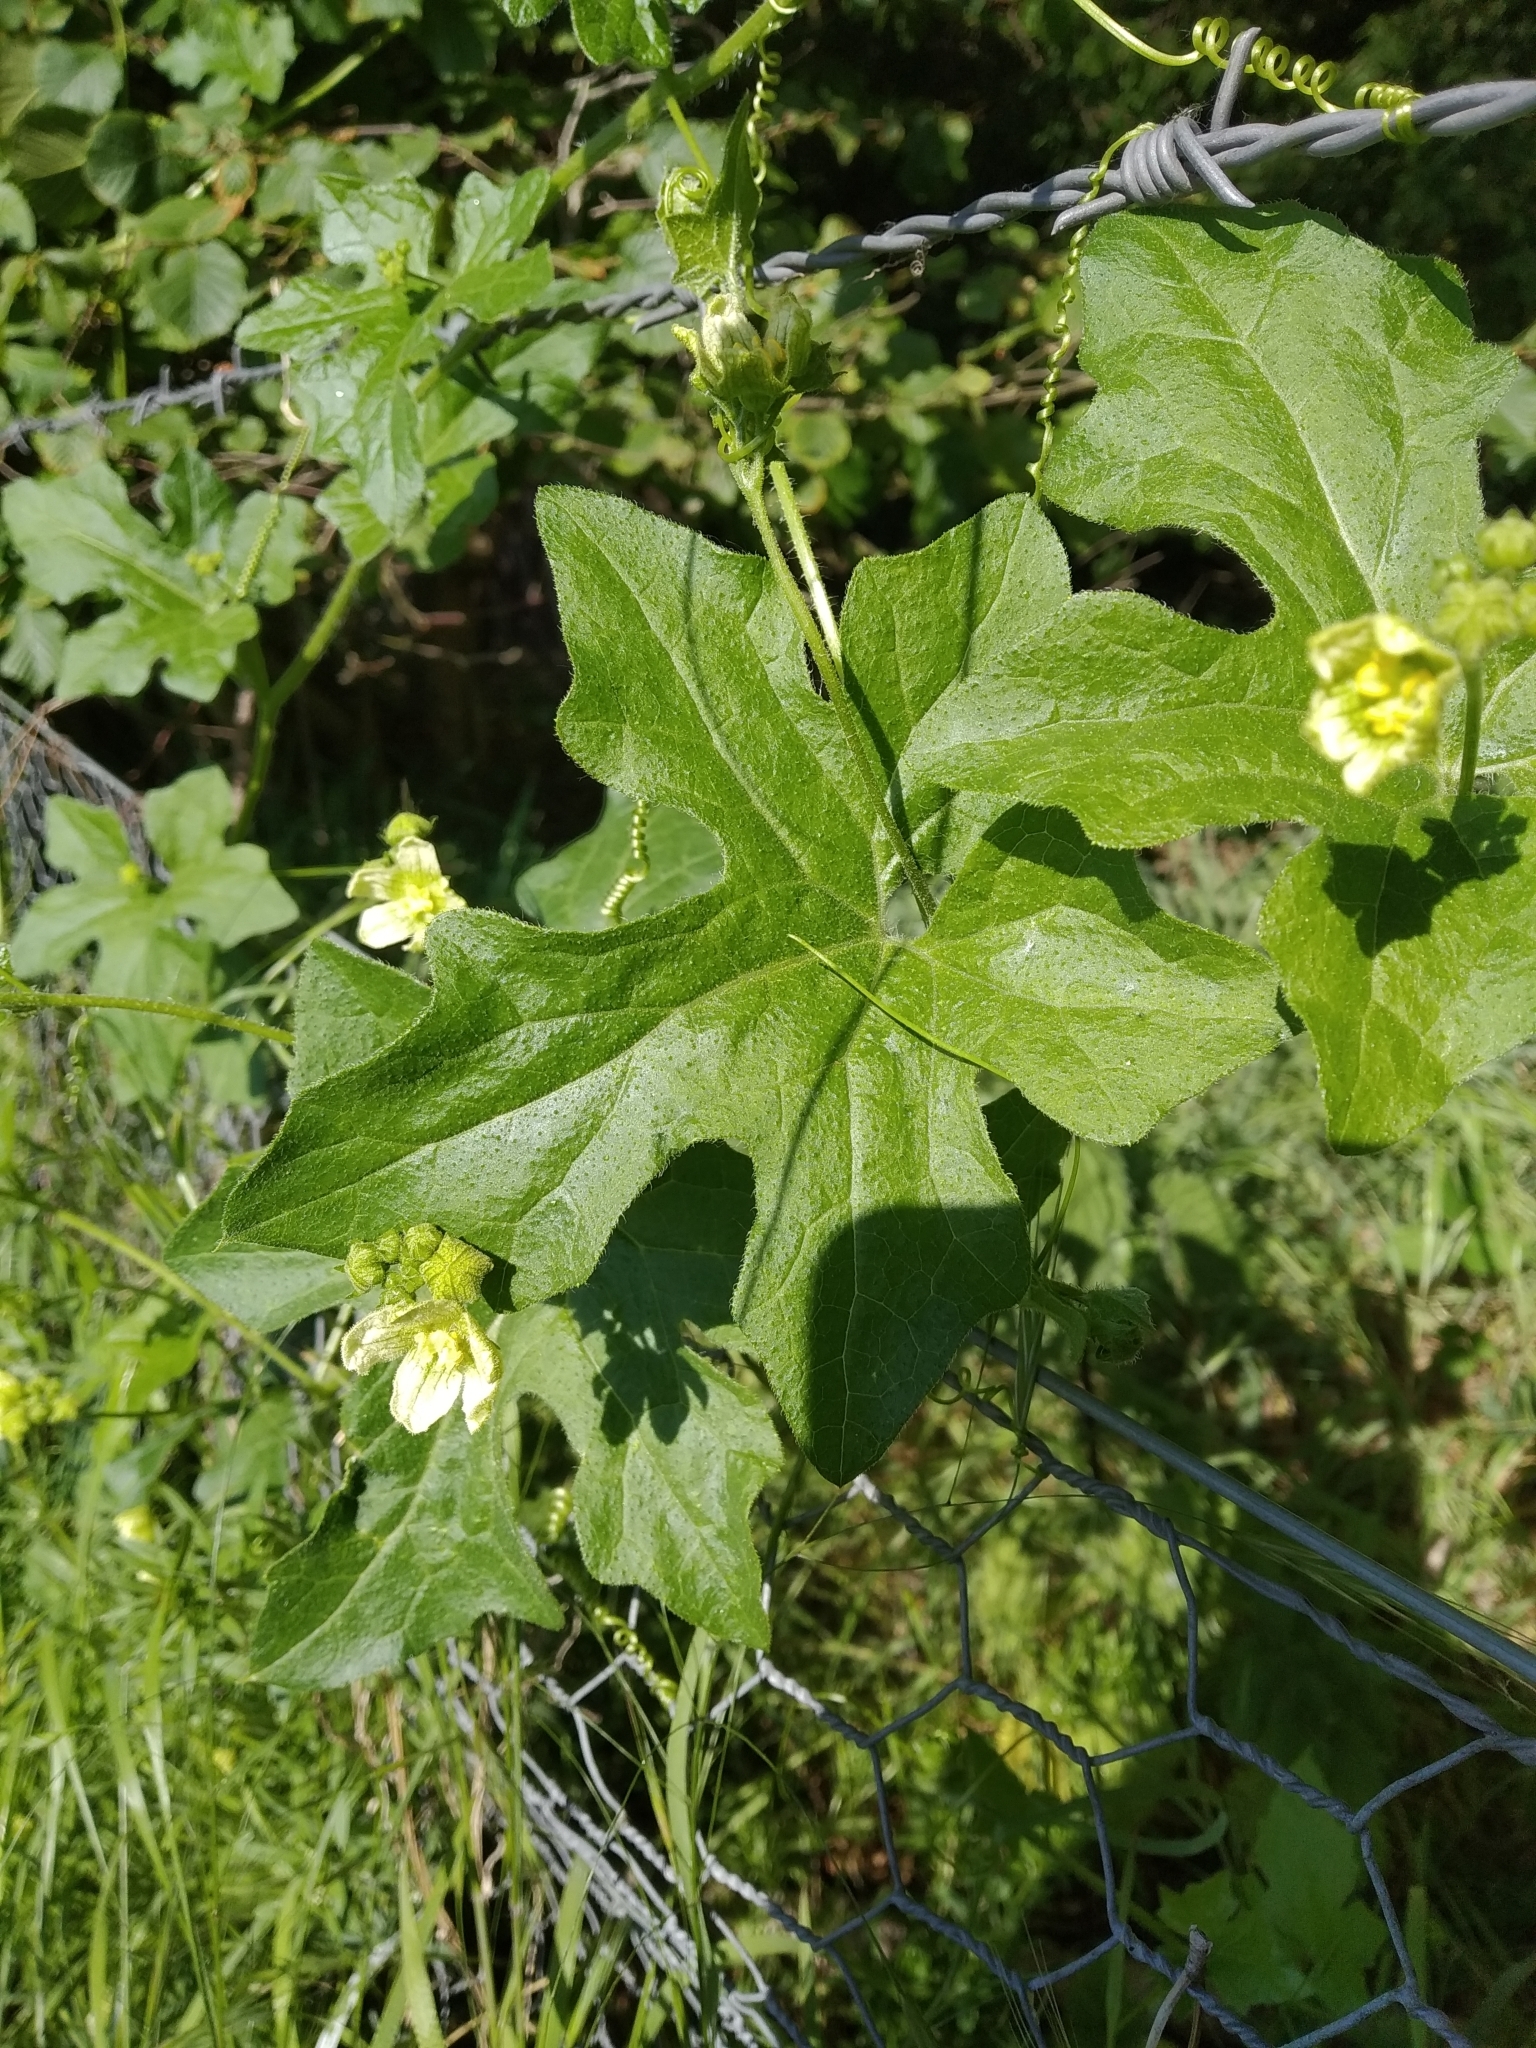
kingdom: Plantae
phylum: Tracheophyta
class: Magnoliopsida
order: Cucurbitales
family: Cucurbitaceae
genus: Bryonia
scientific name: Bryonia cretica
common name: Cretan bryony
